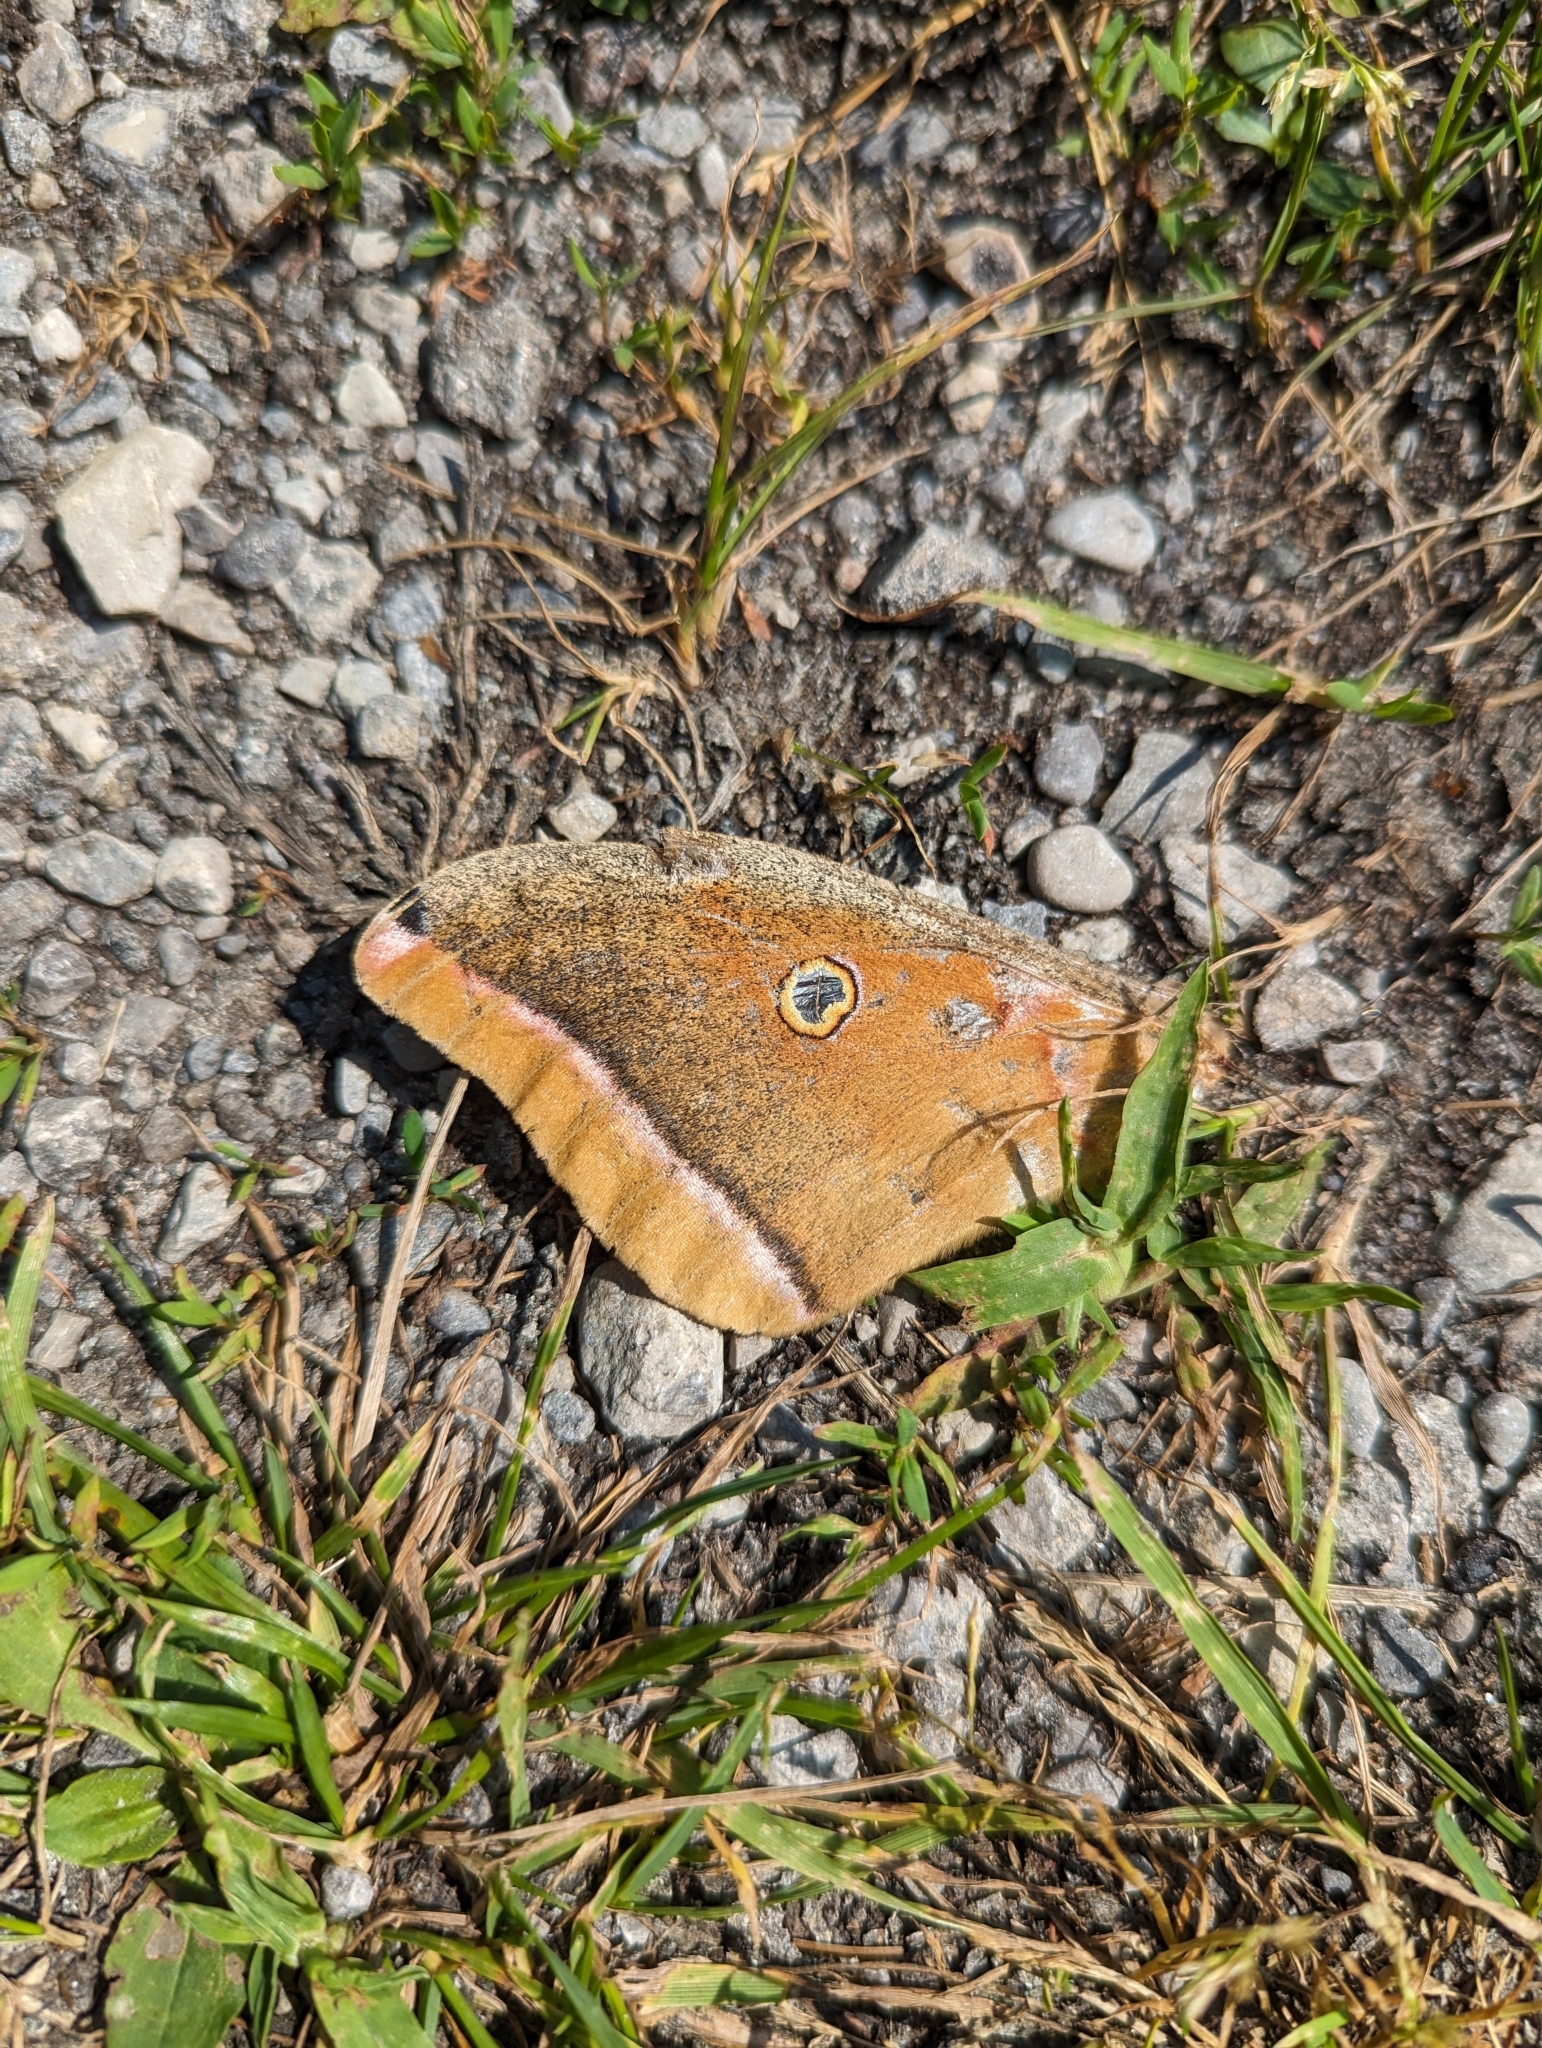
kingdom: Animalia
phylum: Arthropoda
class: Insecta
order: Lepidoptera
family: Saturniidae
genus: Antheraea
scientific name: Antheraea polyphemus
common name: Polyphemus moth
